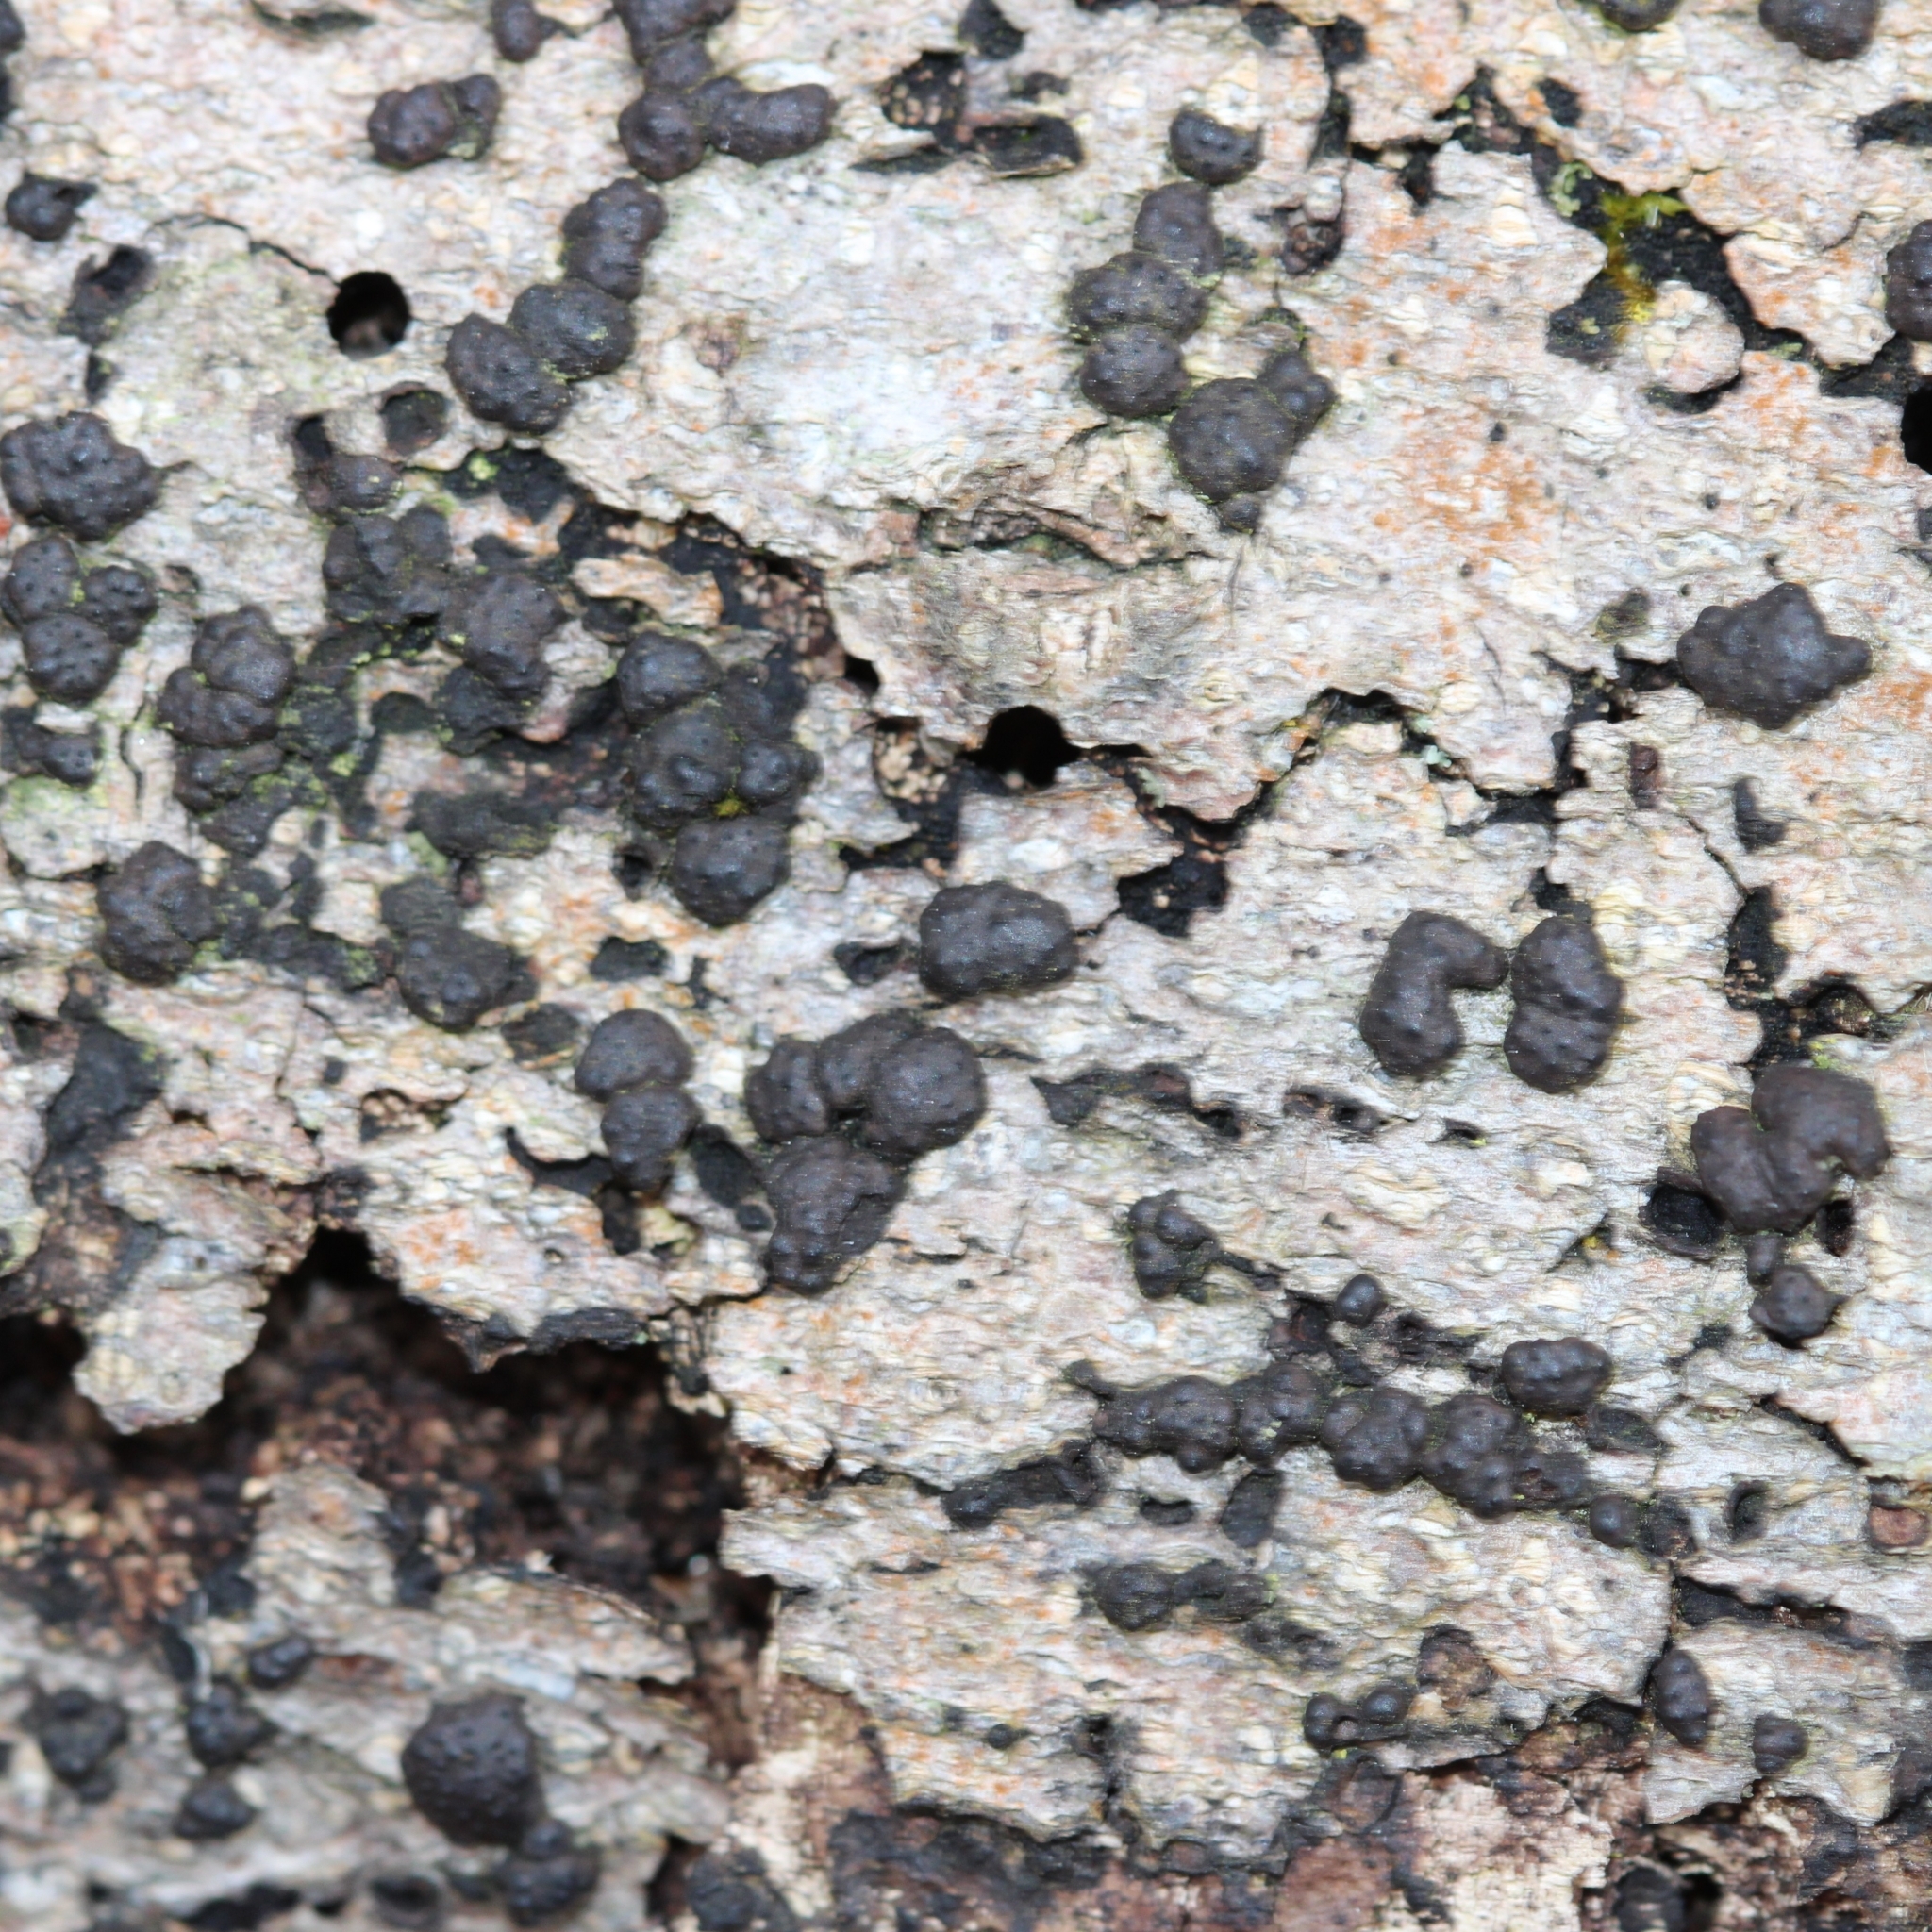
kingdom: Fungi
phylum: Ascomycota
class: Sordariomycetes
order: Xylariales
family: Hypoxylaceae
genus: Jackrogersella
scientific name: Jackrogersella cohaerens
